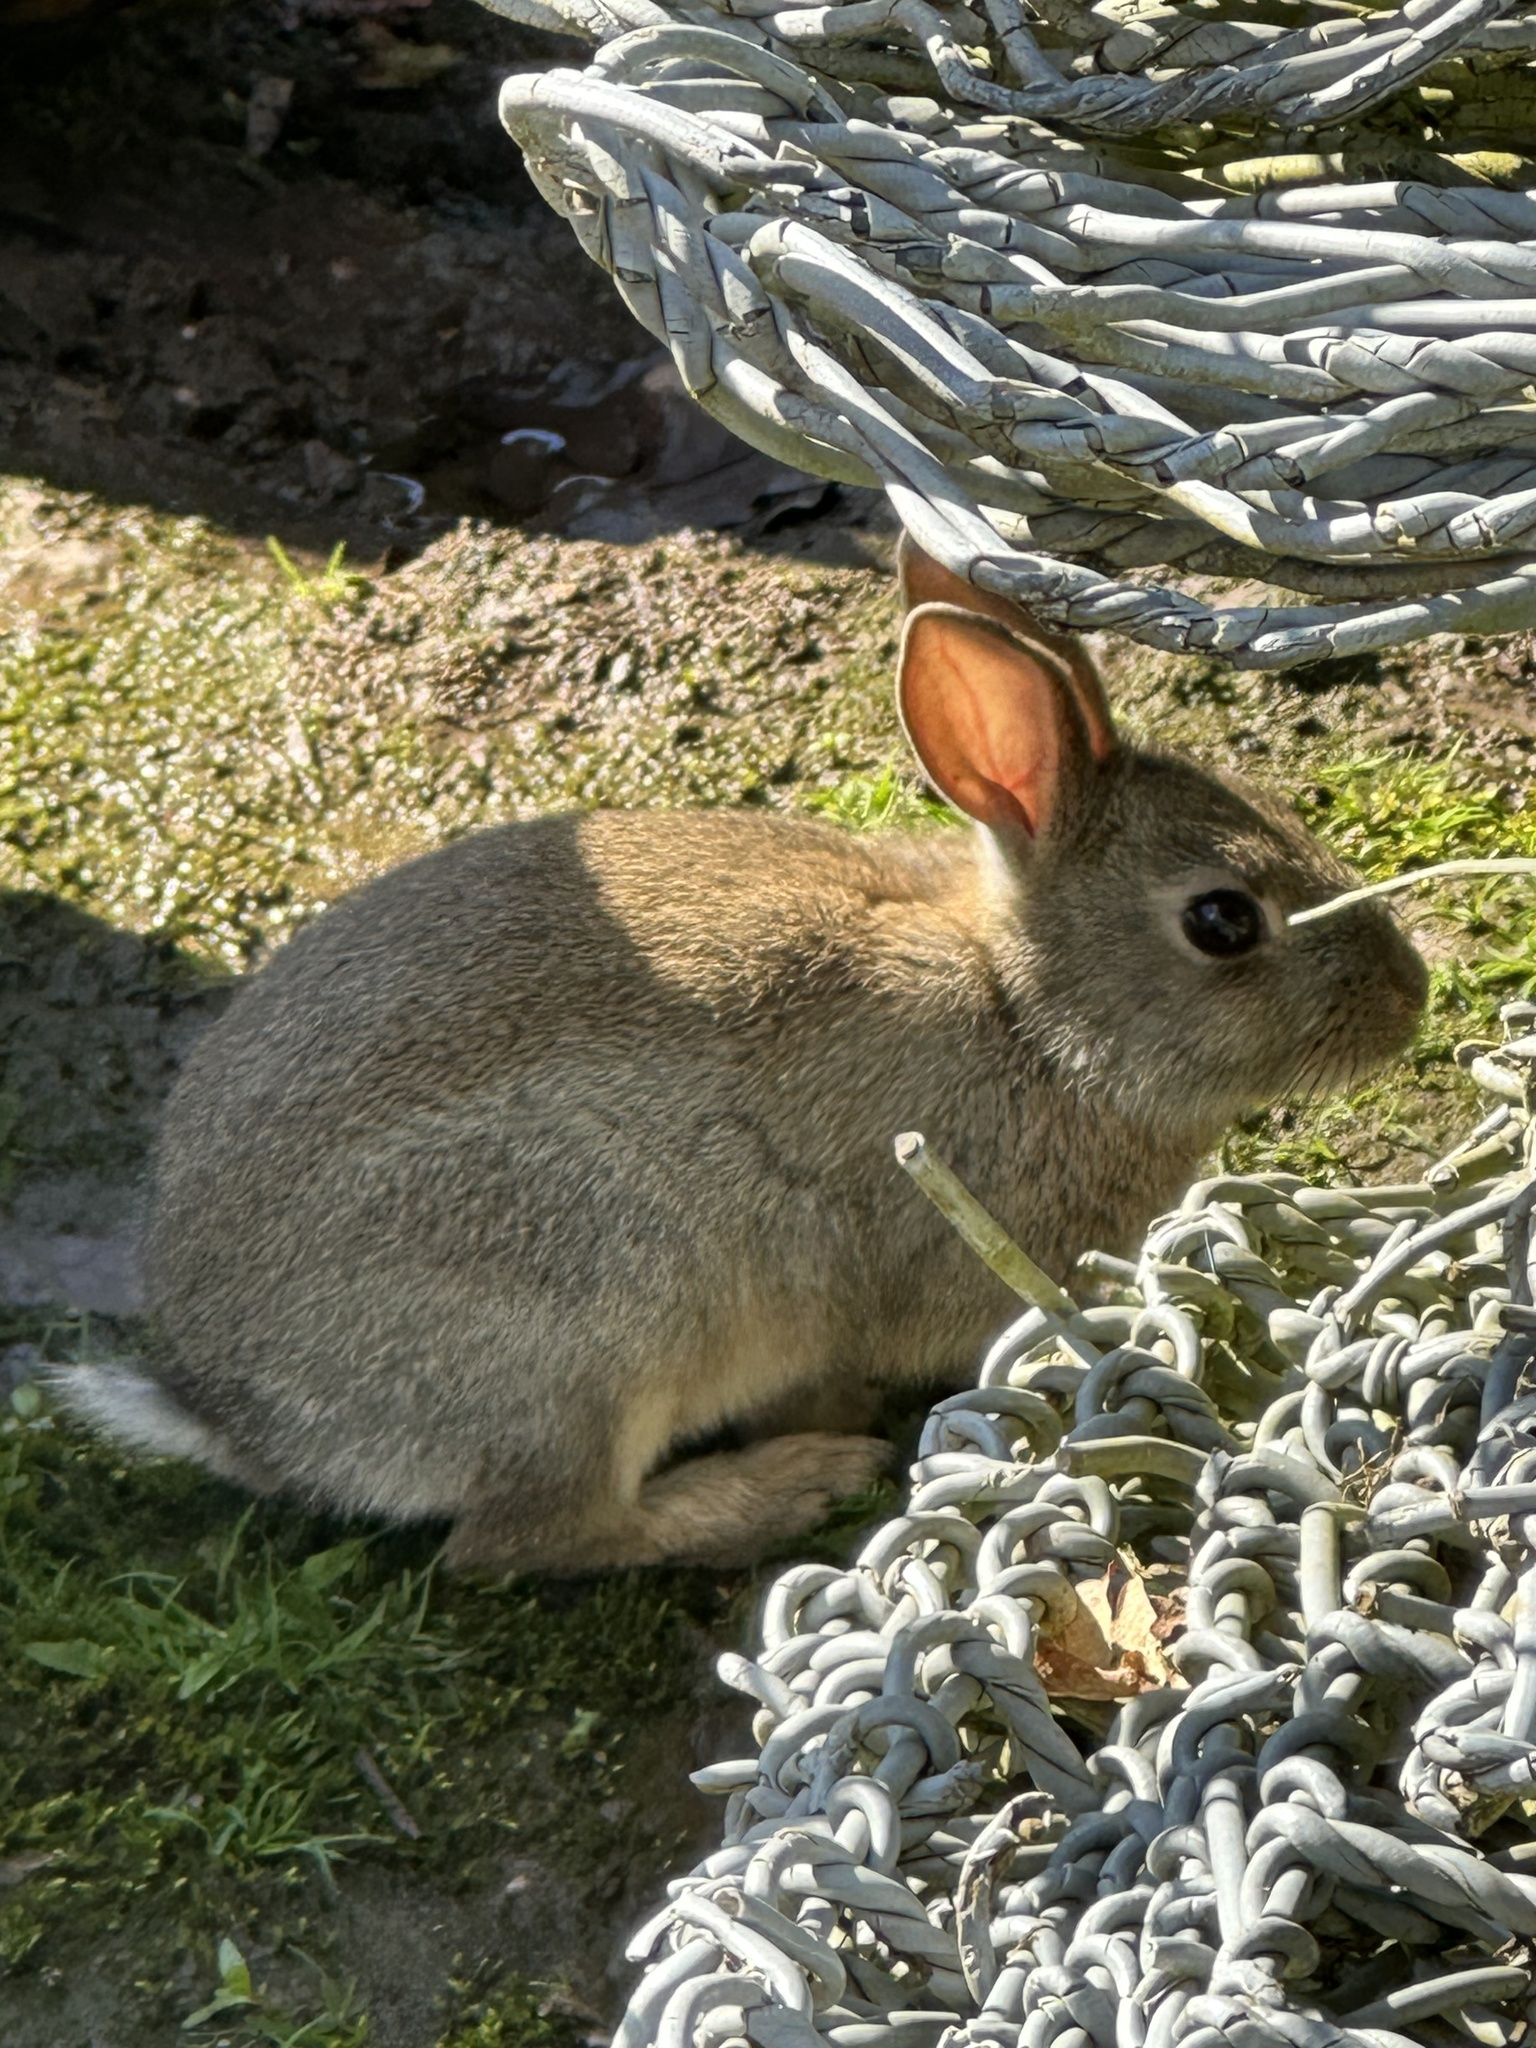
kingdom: Animalia
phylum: Chordata
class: Mammalia
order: Lagomorpha
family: Leporidae
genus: Oryctolagus
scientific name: Oryctolagus cuniculus
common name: European rabbit
